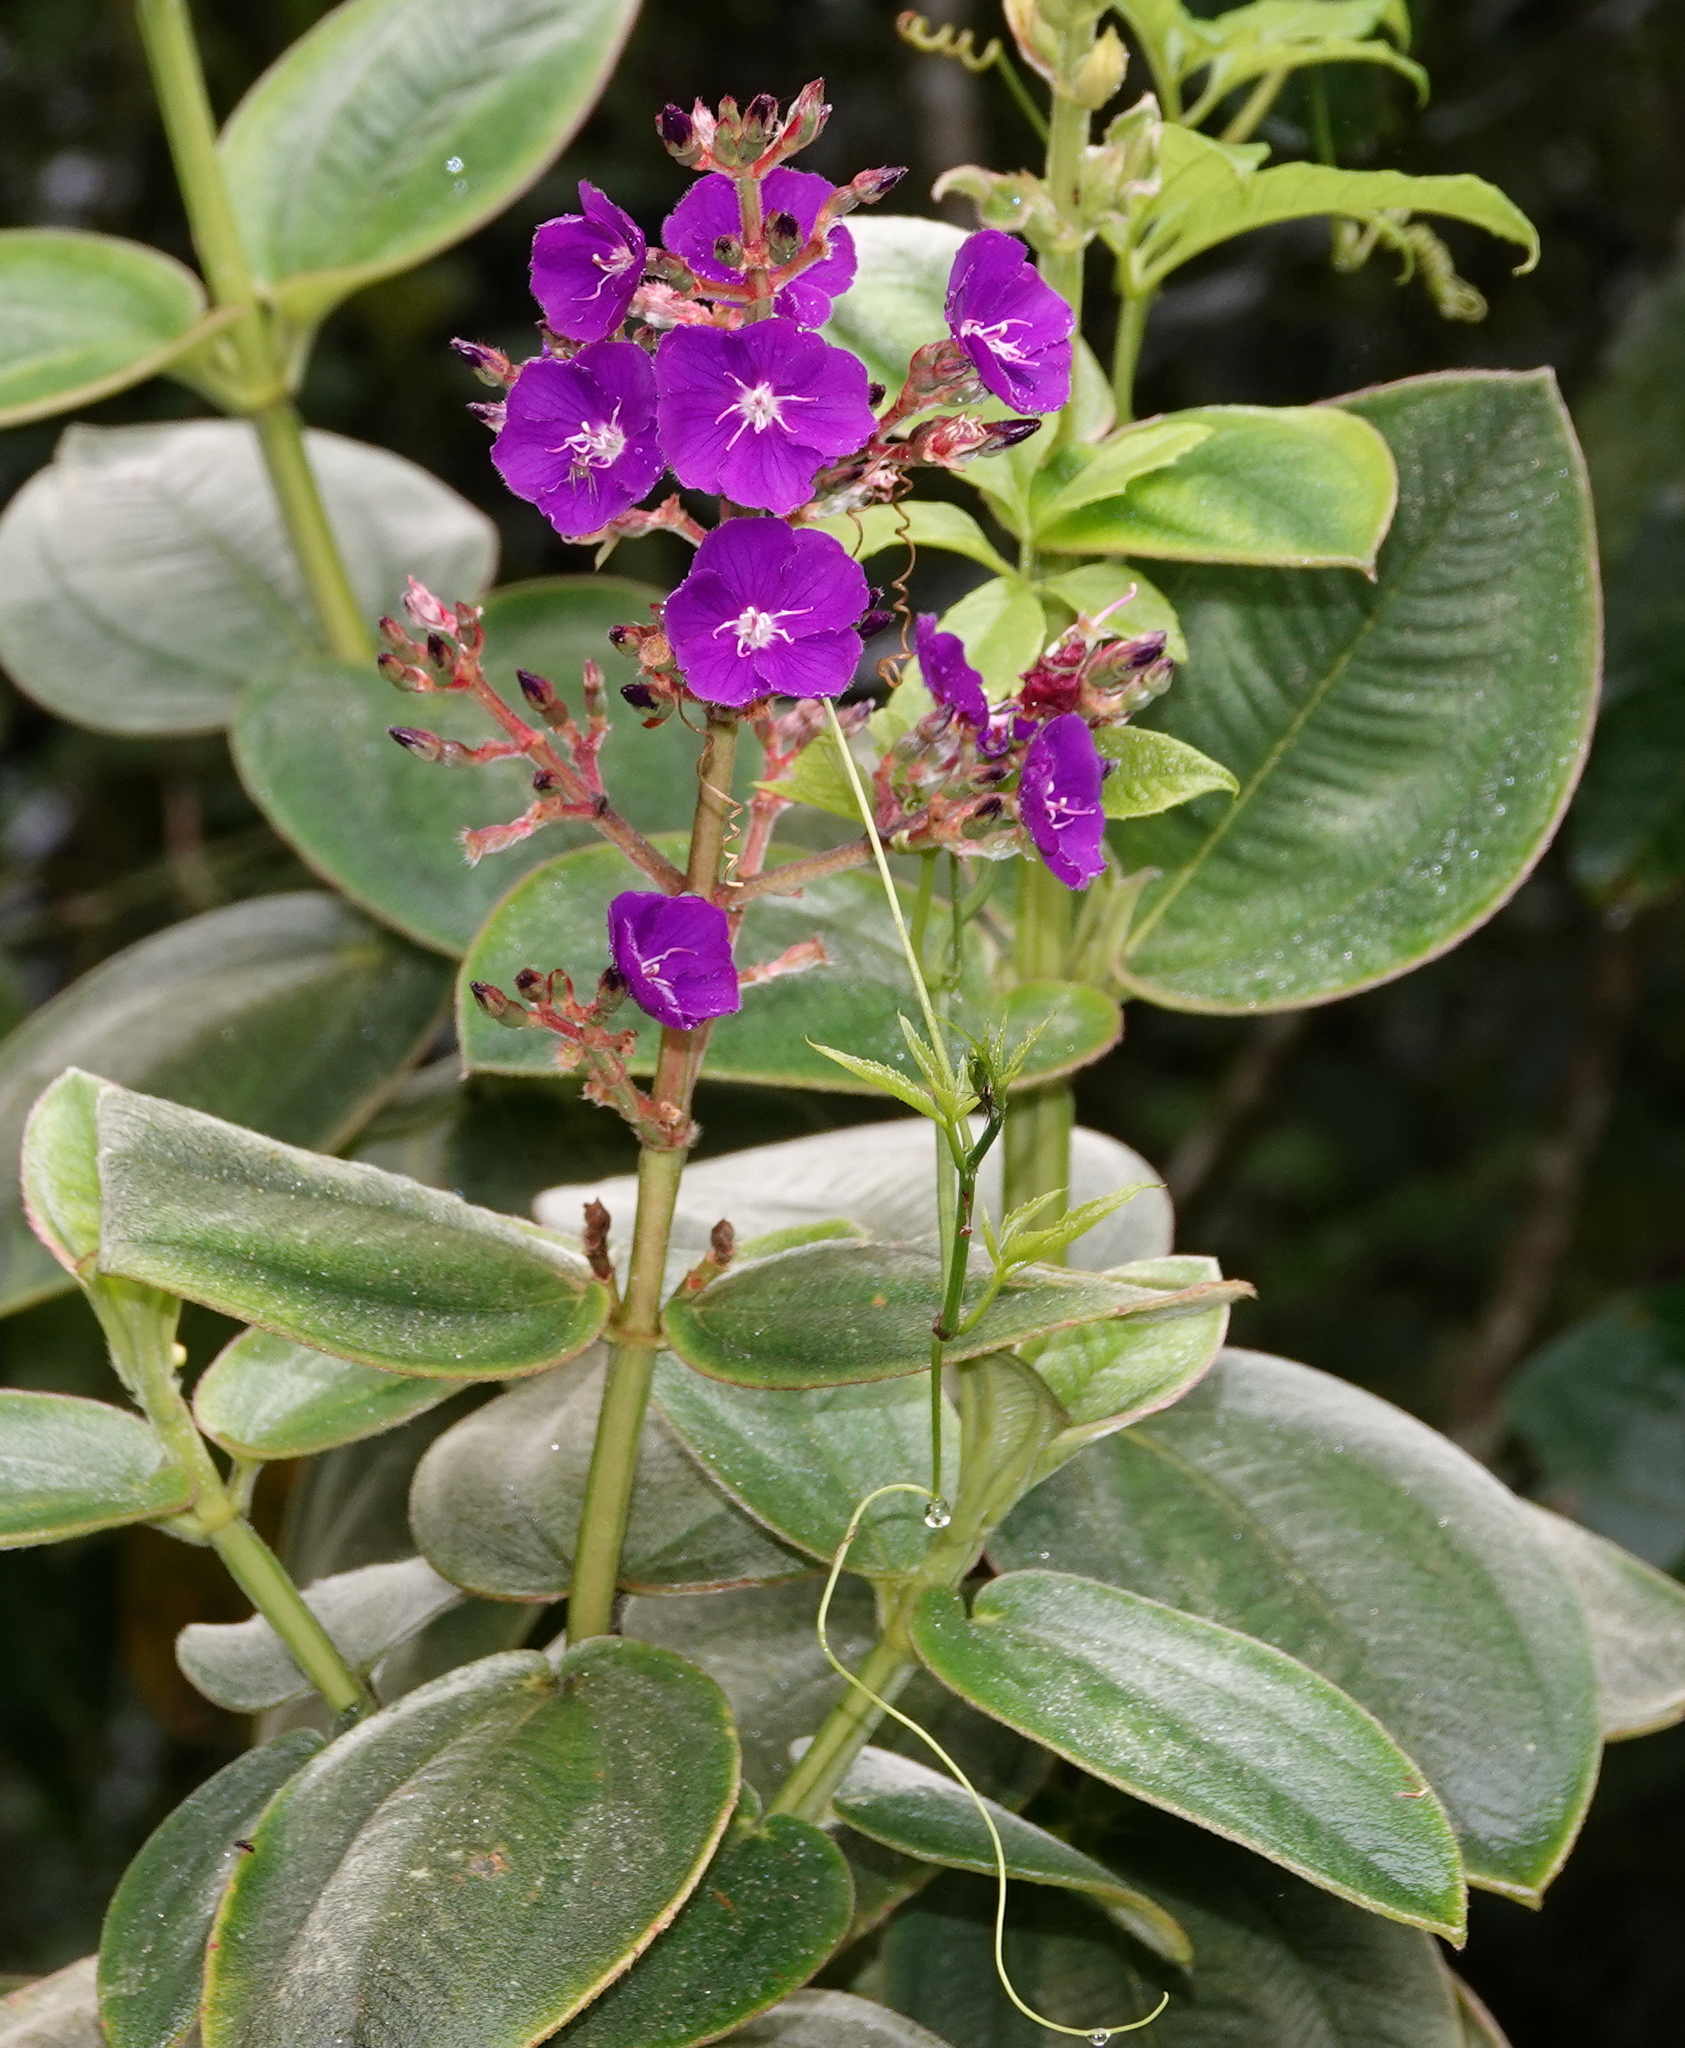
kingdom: Plantae
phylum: Tracheophyta
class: Magnoliopsida
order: Myrtales
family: Melastomataceae
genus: Pleroma
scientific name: Pleroma heteromallum
